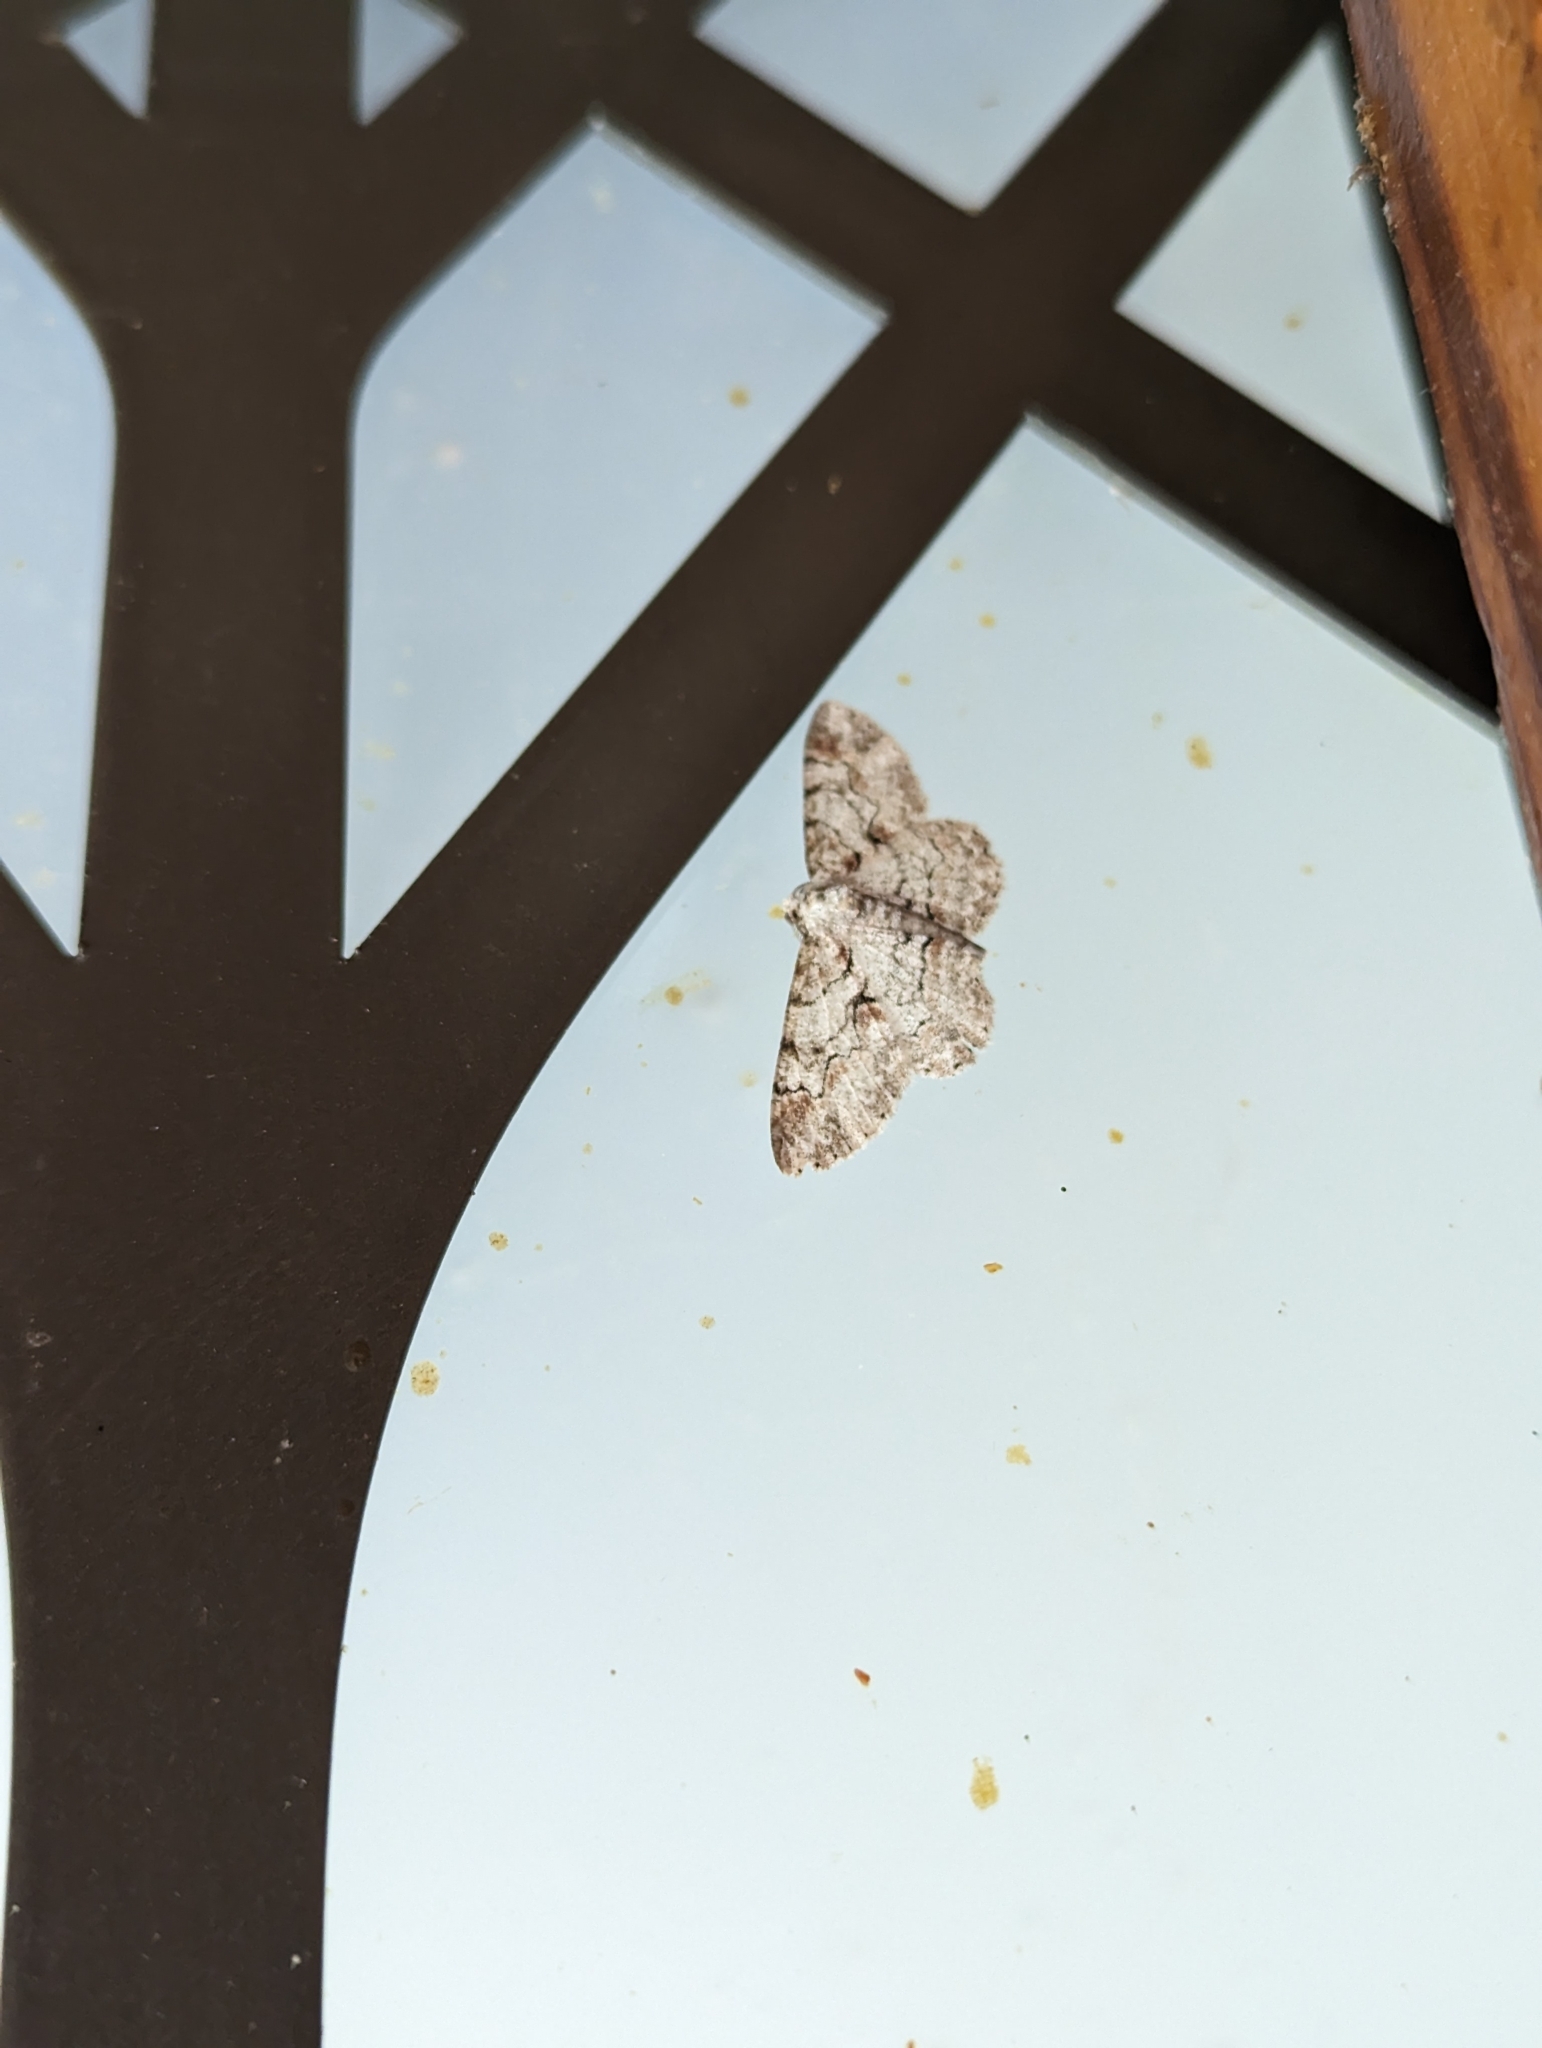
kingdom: Animalia
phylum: Arthropoda
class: Insecta
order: Lepidoptera
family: Geometridae
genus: Iridopsis
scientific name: Iridopsis defectaria
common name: Brown-shaded gray
